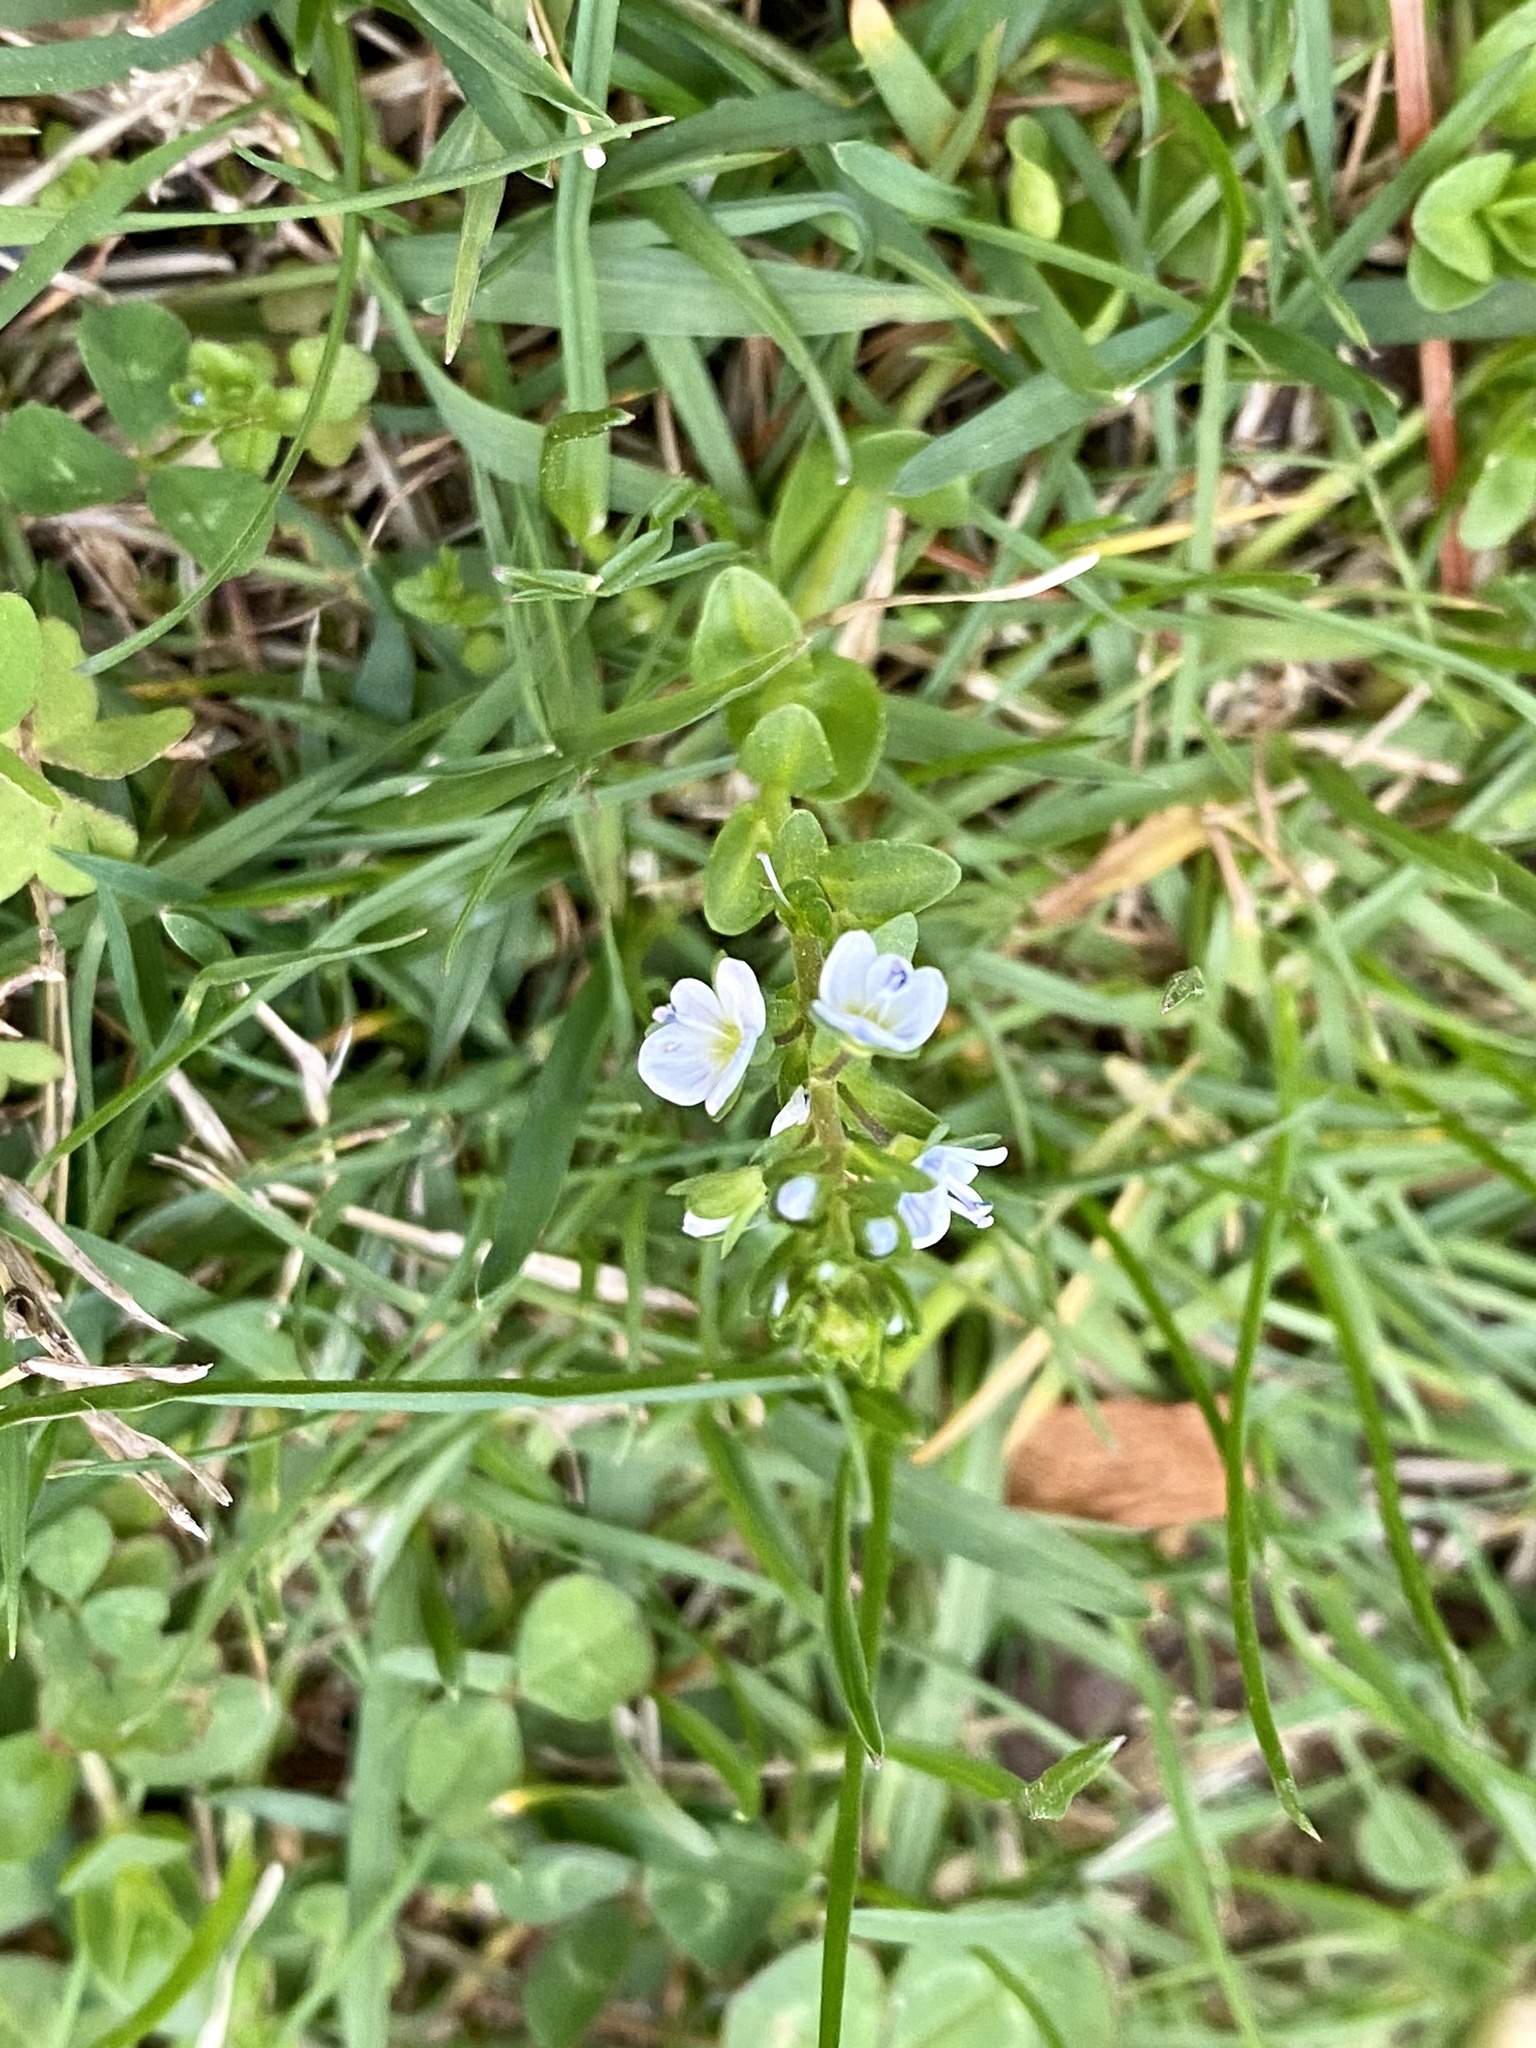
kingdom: Plantae
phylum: Tracheophyta
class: Magnoliopsida
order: Lamiales
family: Plantaginaceae
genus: Veronica
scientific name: Veronica serpyllifolia
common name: Thyme-leaved speedwell
